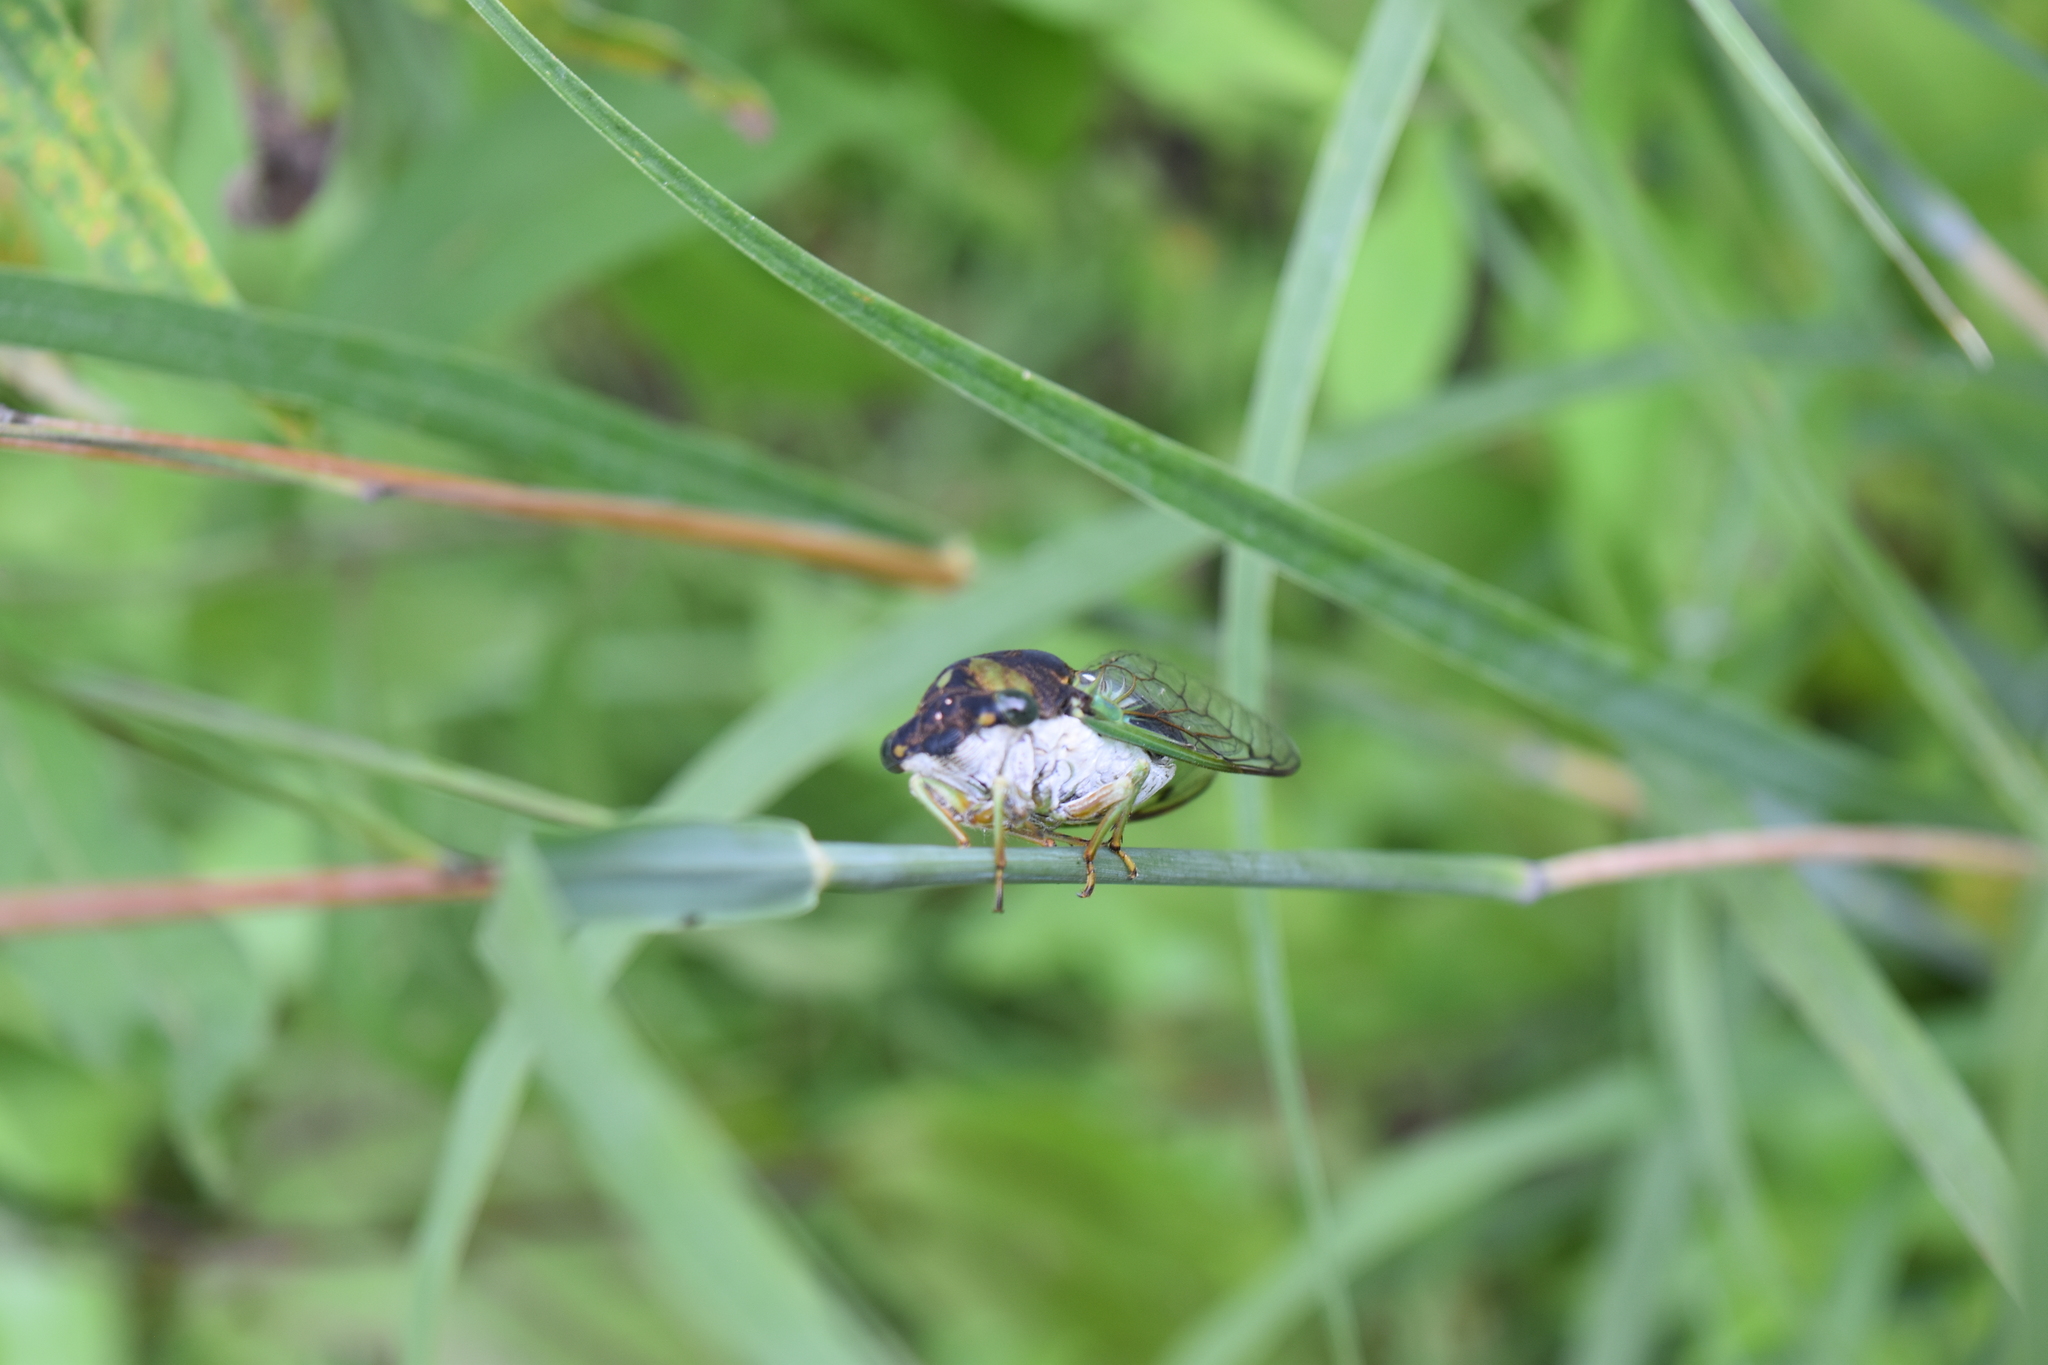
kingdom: Animalia
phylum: Arthropoda
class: Insecta
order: Hemiptera
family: Cicadidae
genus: Neotibicen
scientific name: Neotibicen tibicen
